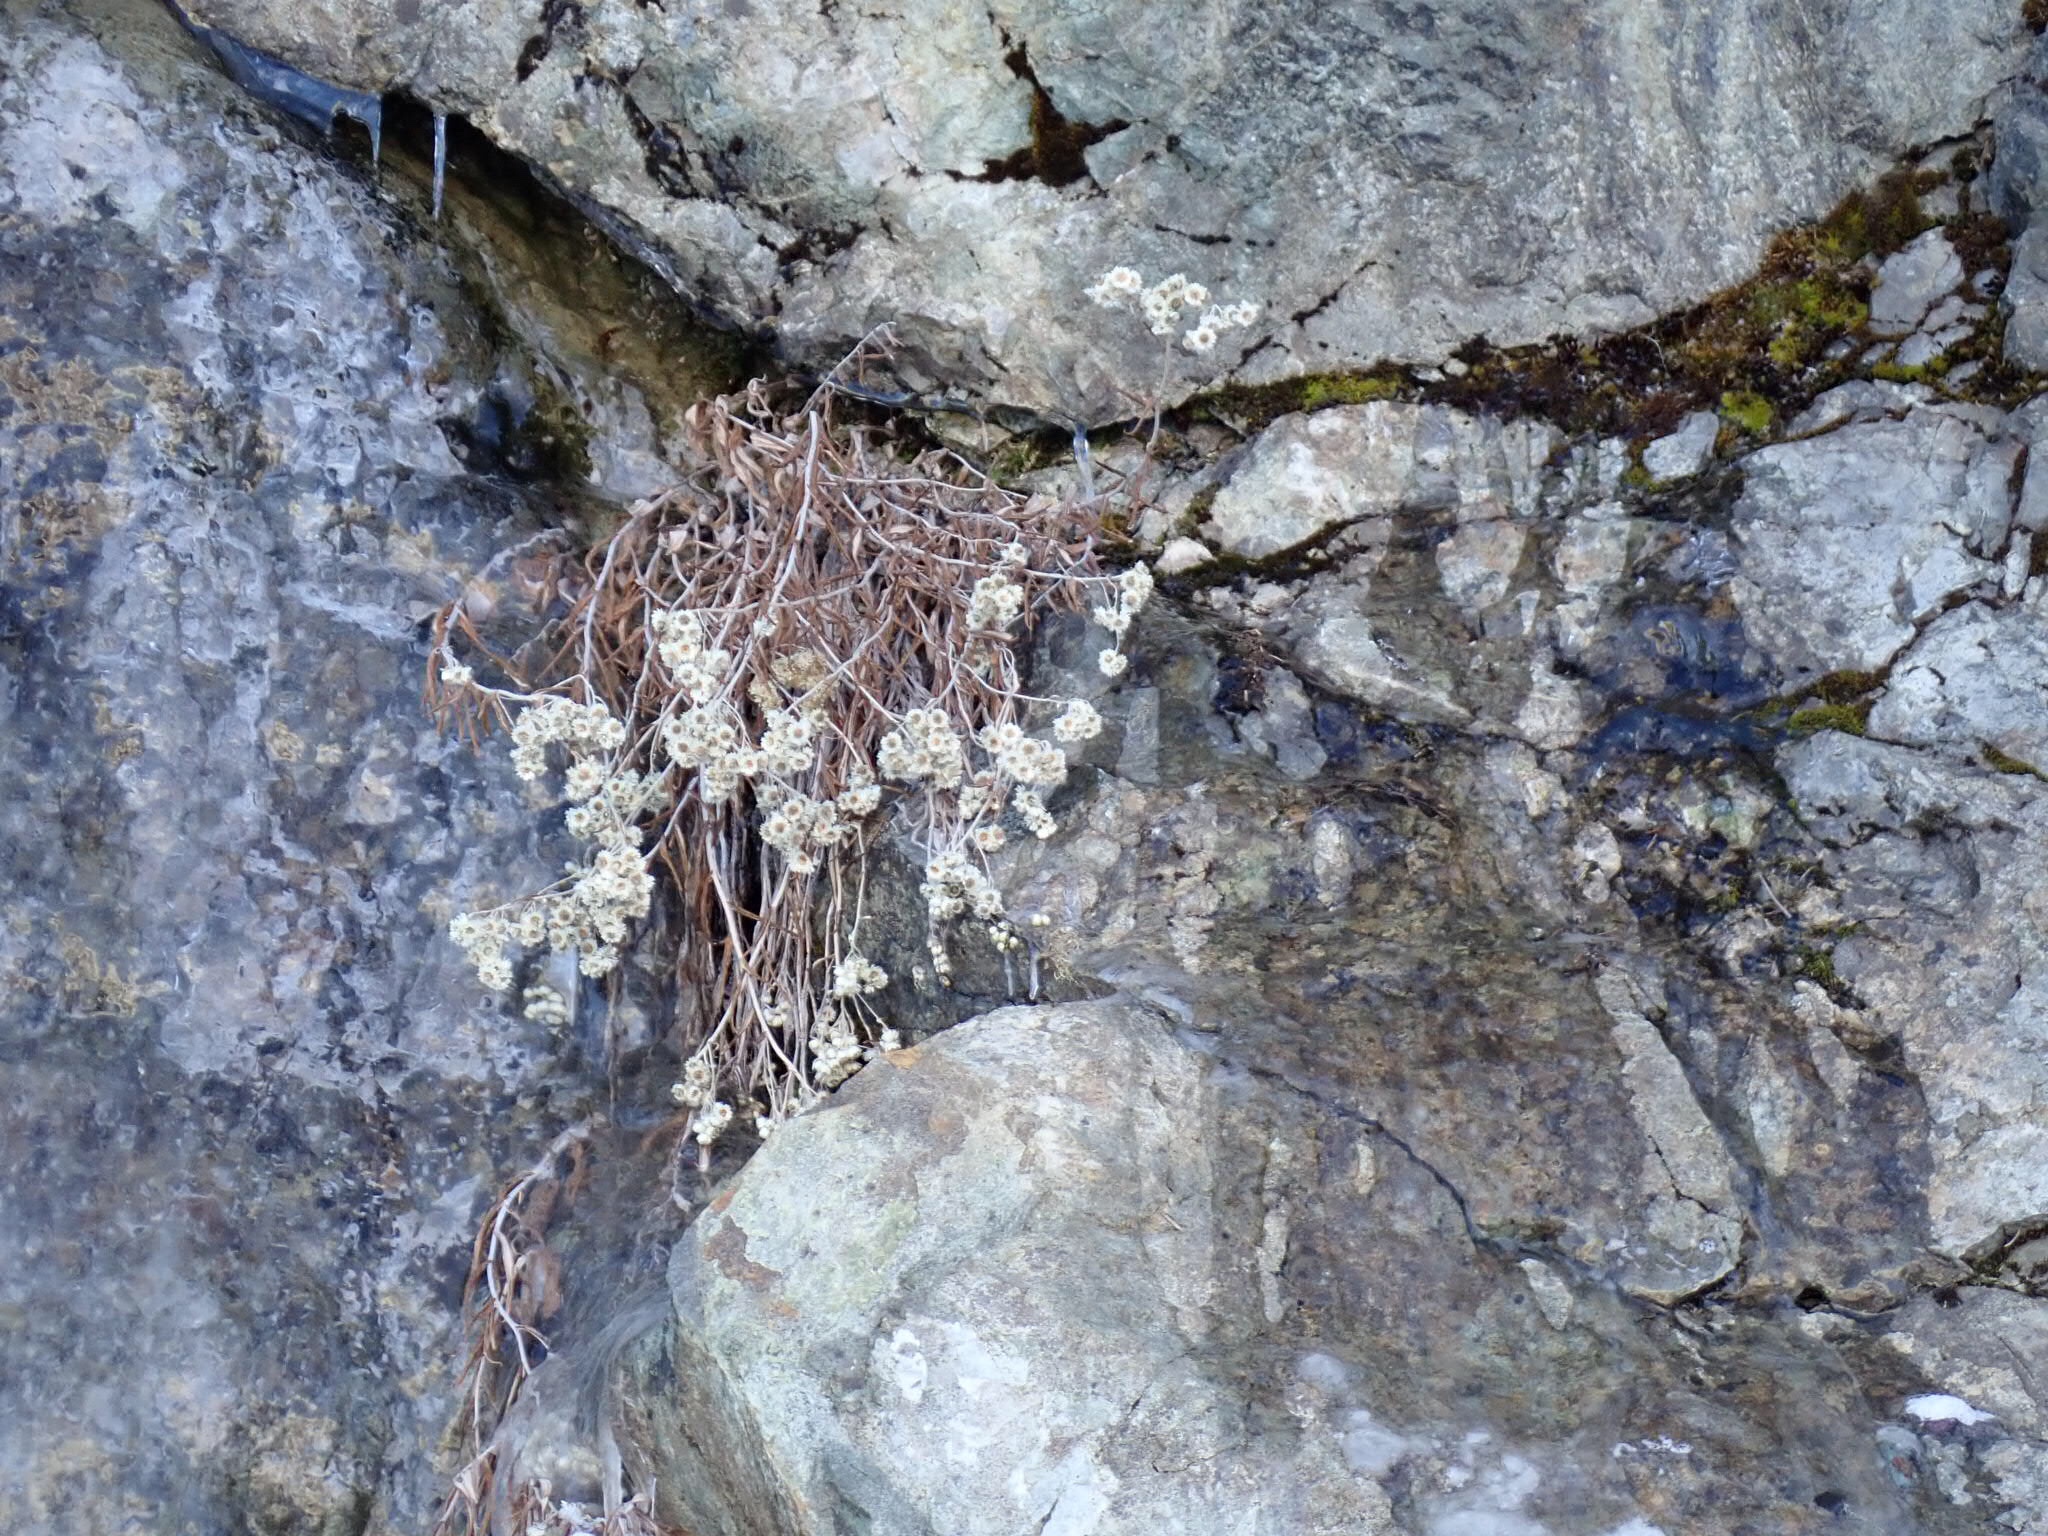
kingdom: Plantae
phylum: Tracheophyta
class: Magnoliopsida
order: Asterales
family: Asteraceae
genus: Anaphalis
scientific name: Anaphalis margaritacea
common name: Pearly everlasting
